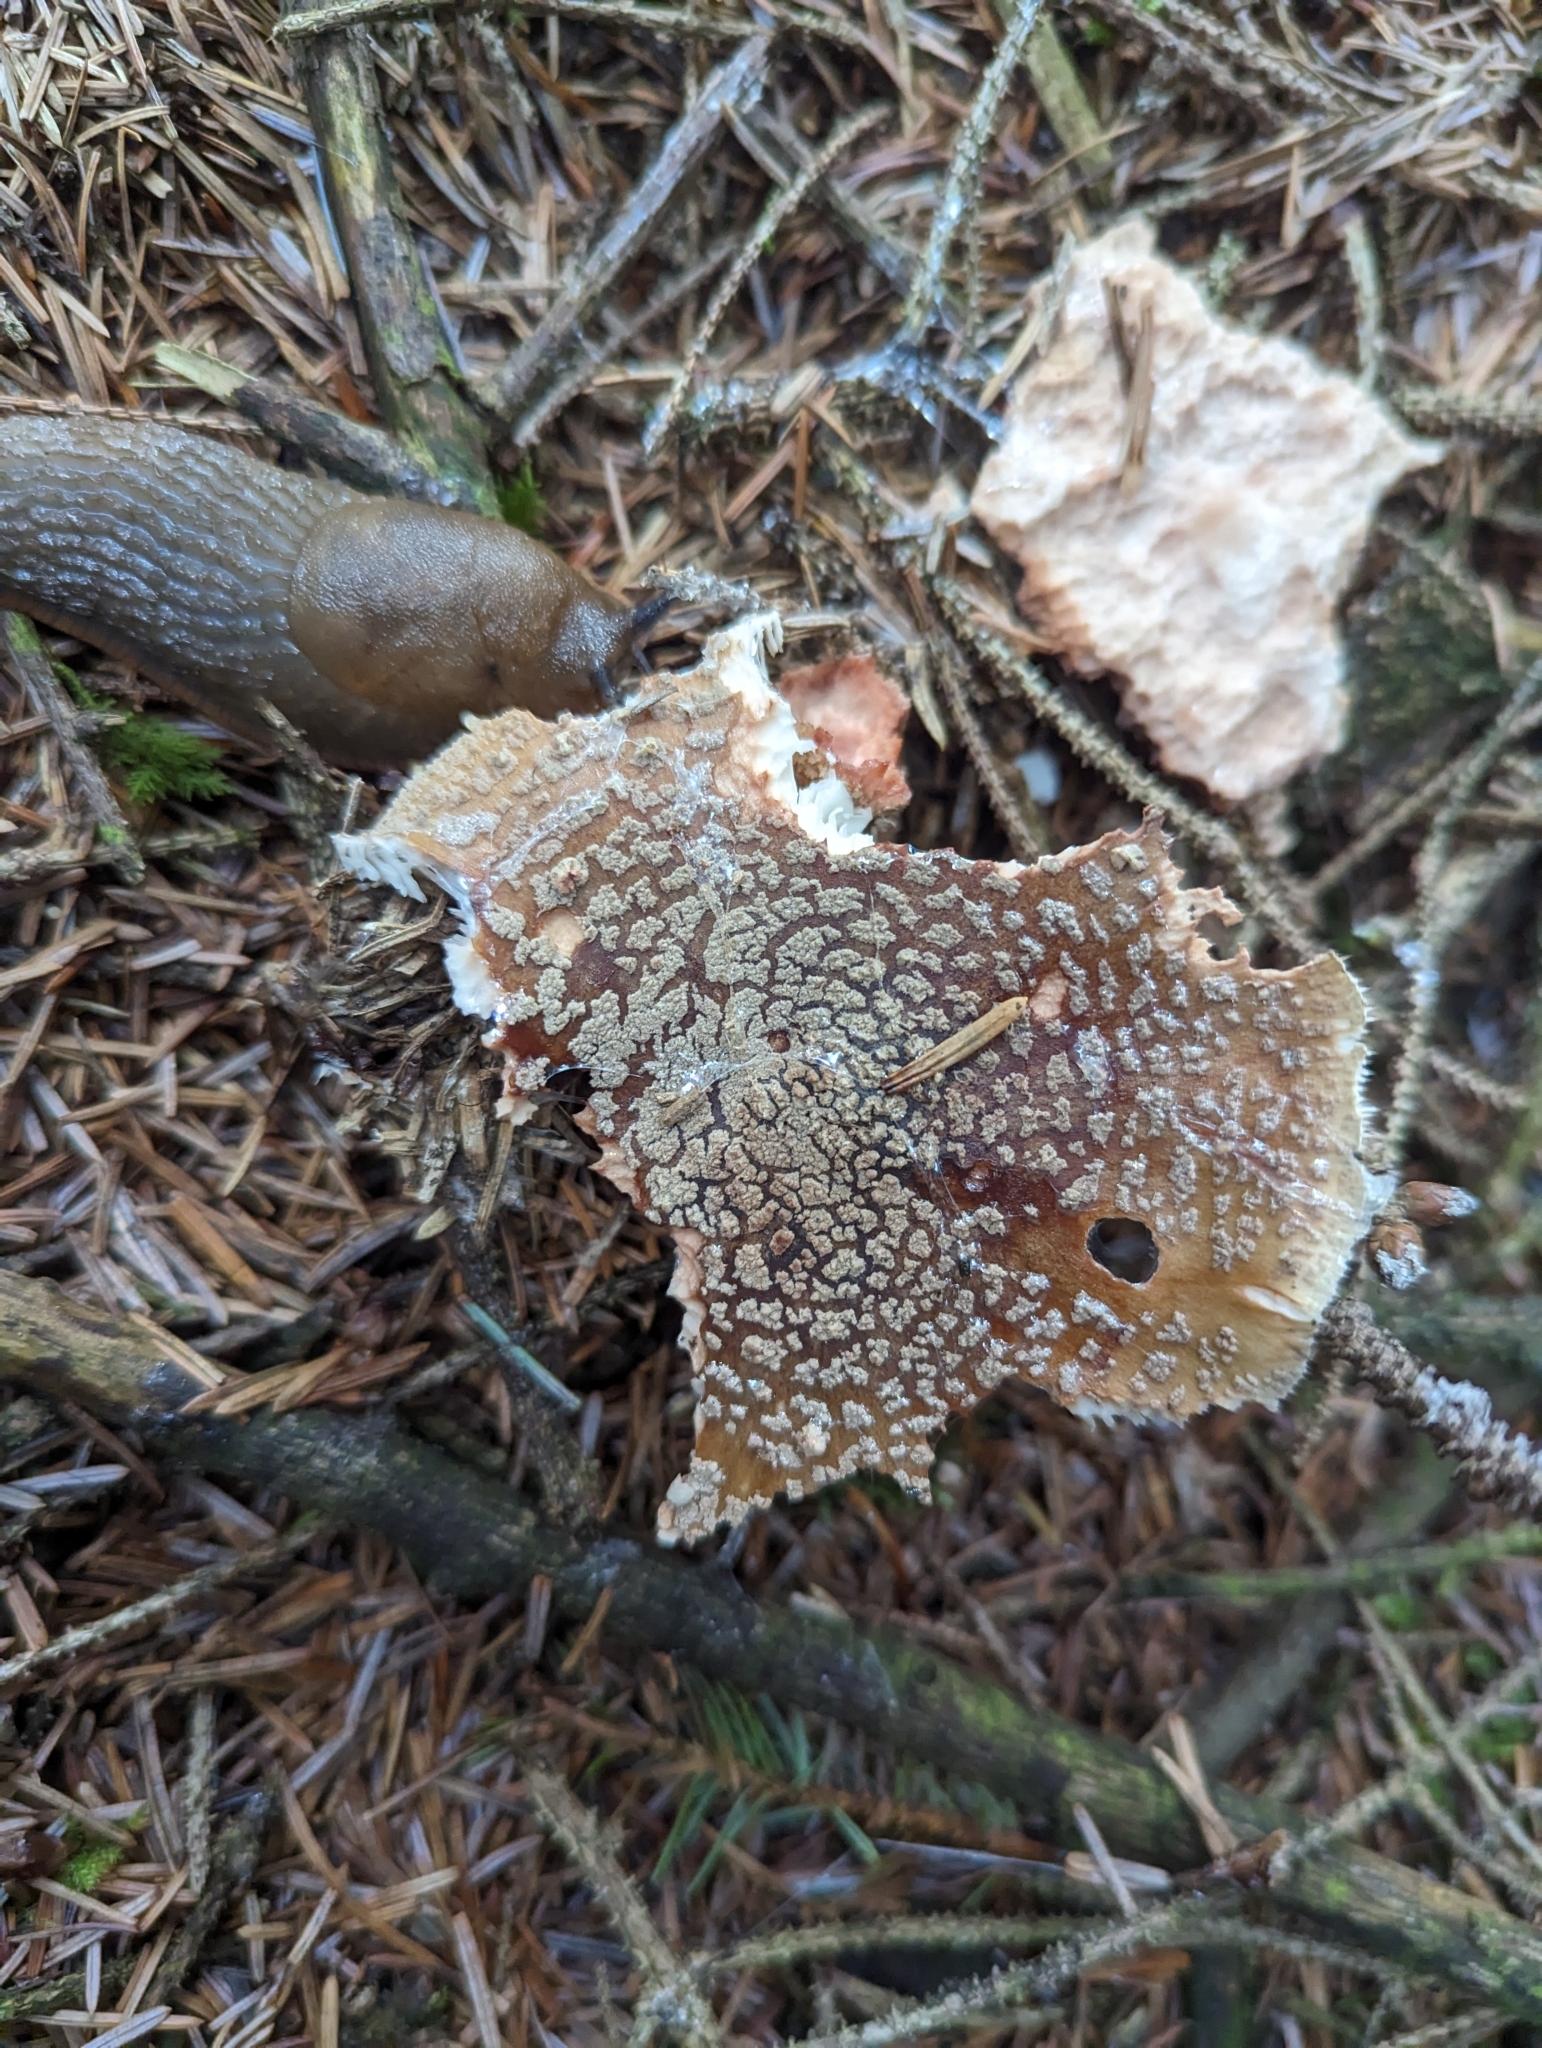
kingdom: Fungi
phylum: Basidiomycota
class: Agaricomycetes
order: Agaricales
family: Amanitaceae
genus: Amanita
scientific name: Amanita rubescens
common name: Blusher
